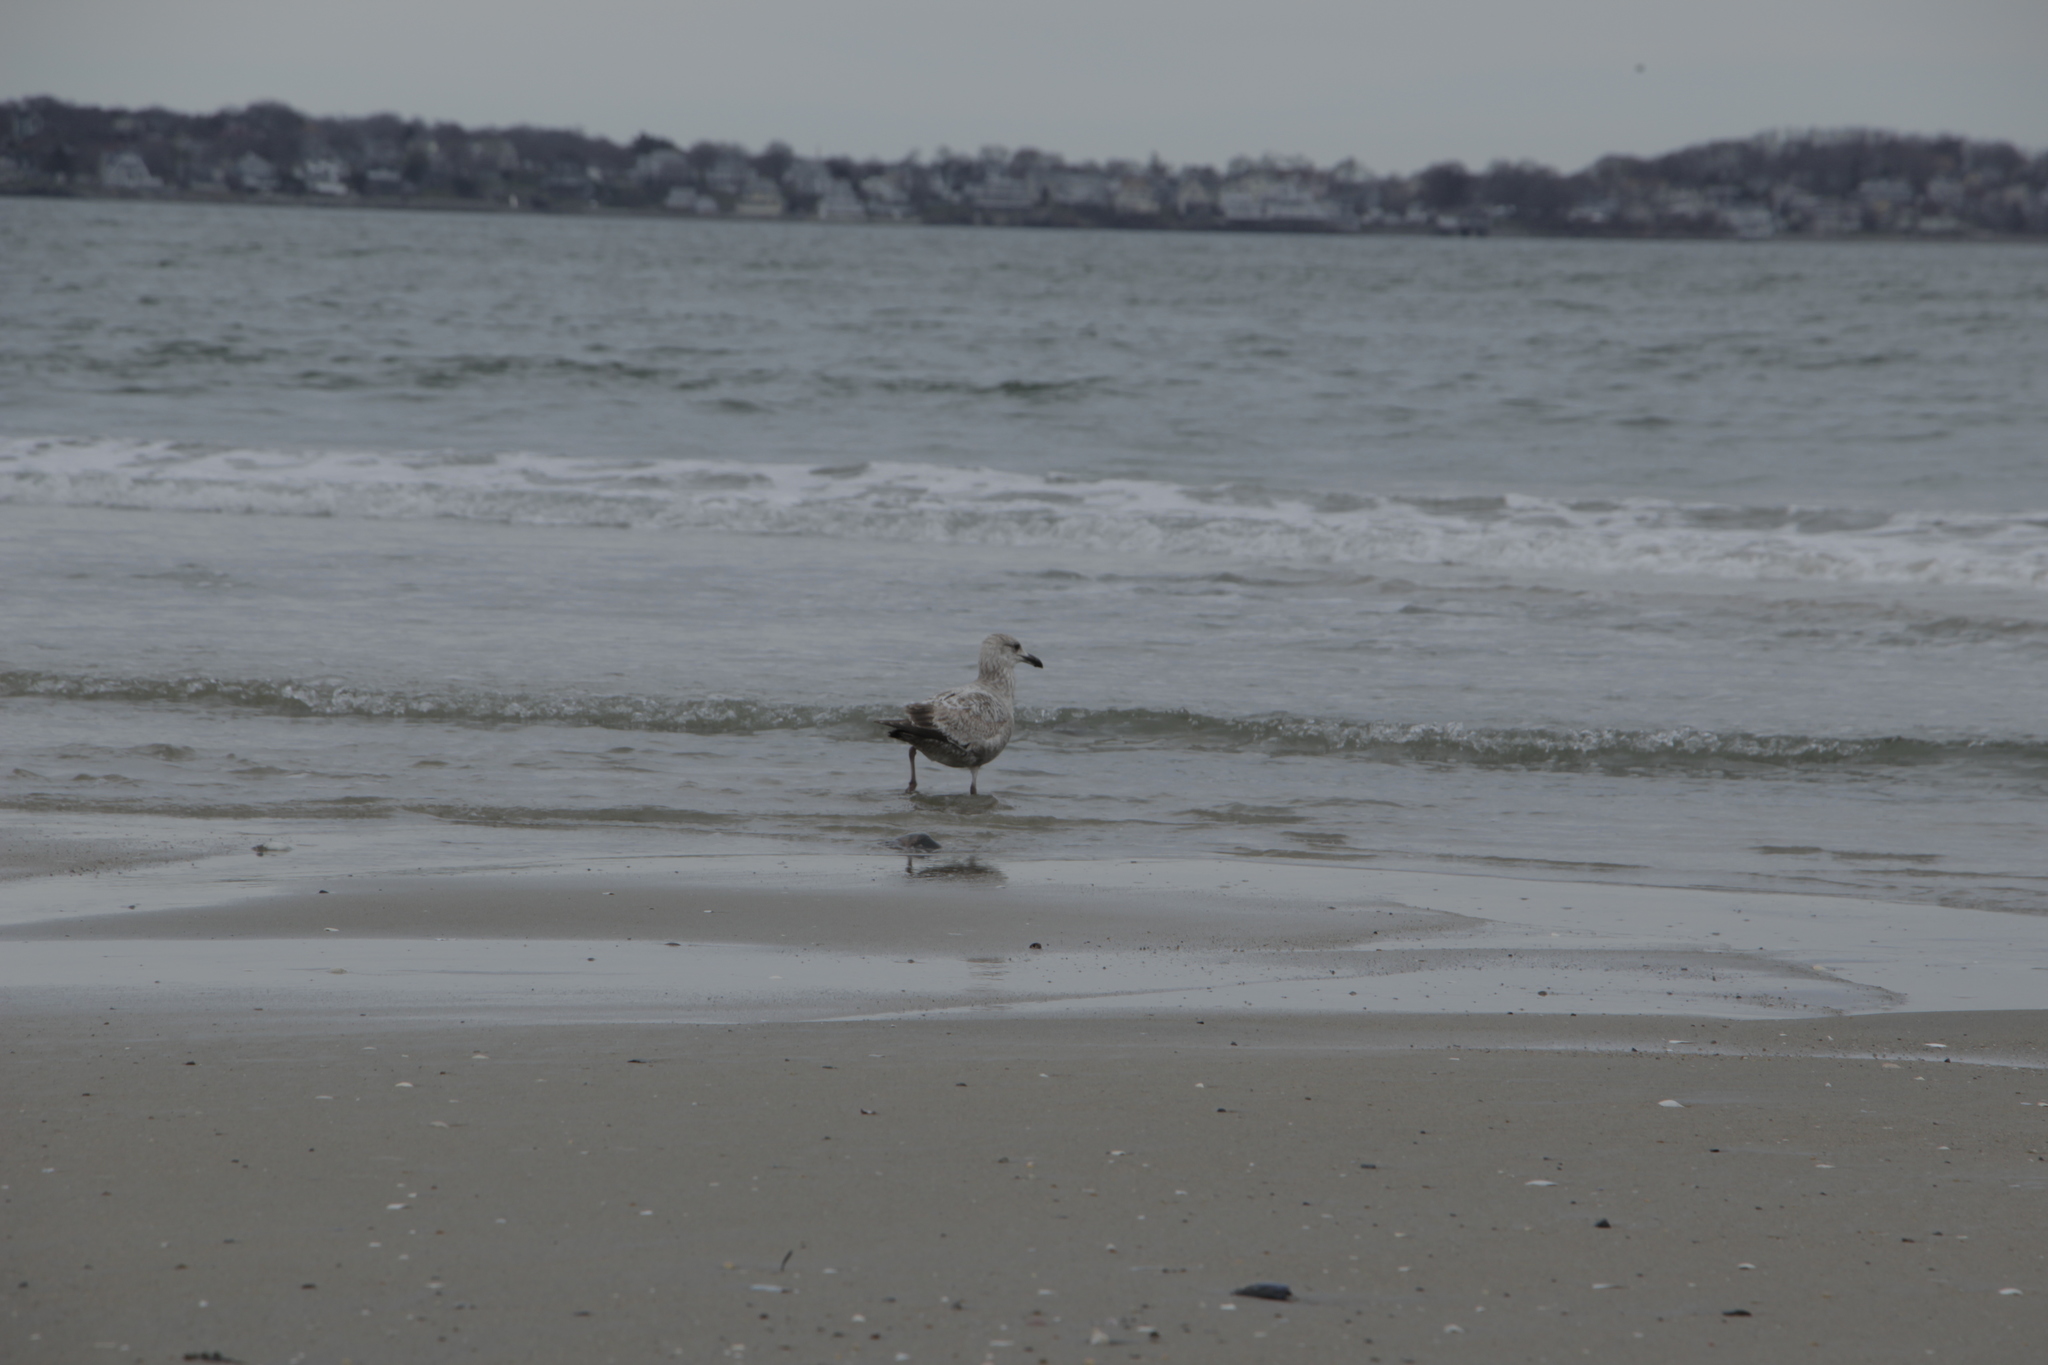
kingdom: Animalia
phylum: Chordata
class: Aves
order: Charadriiformes
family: Laridae
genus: Larus
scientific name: Larus argentatus
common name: Herring gull
